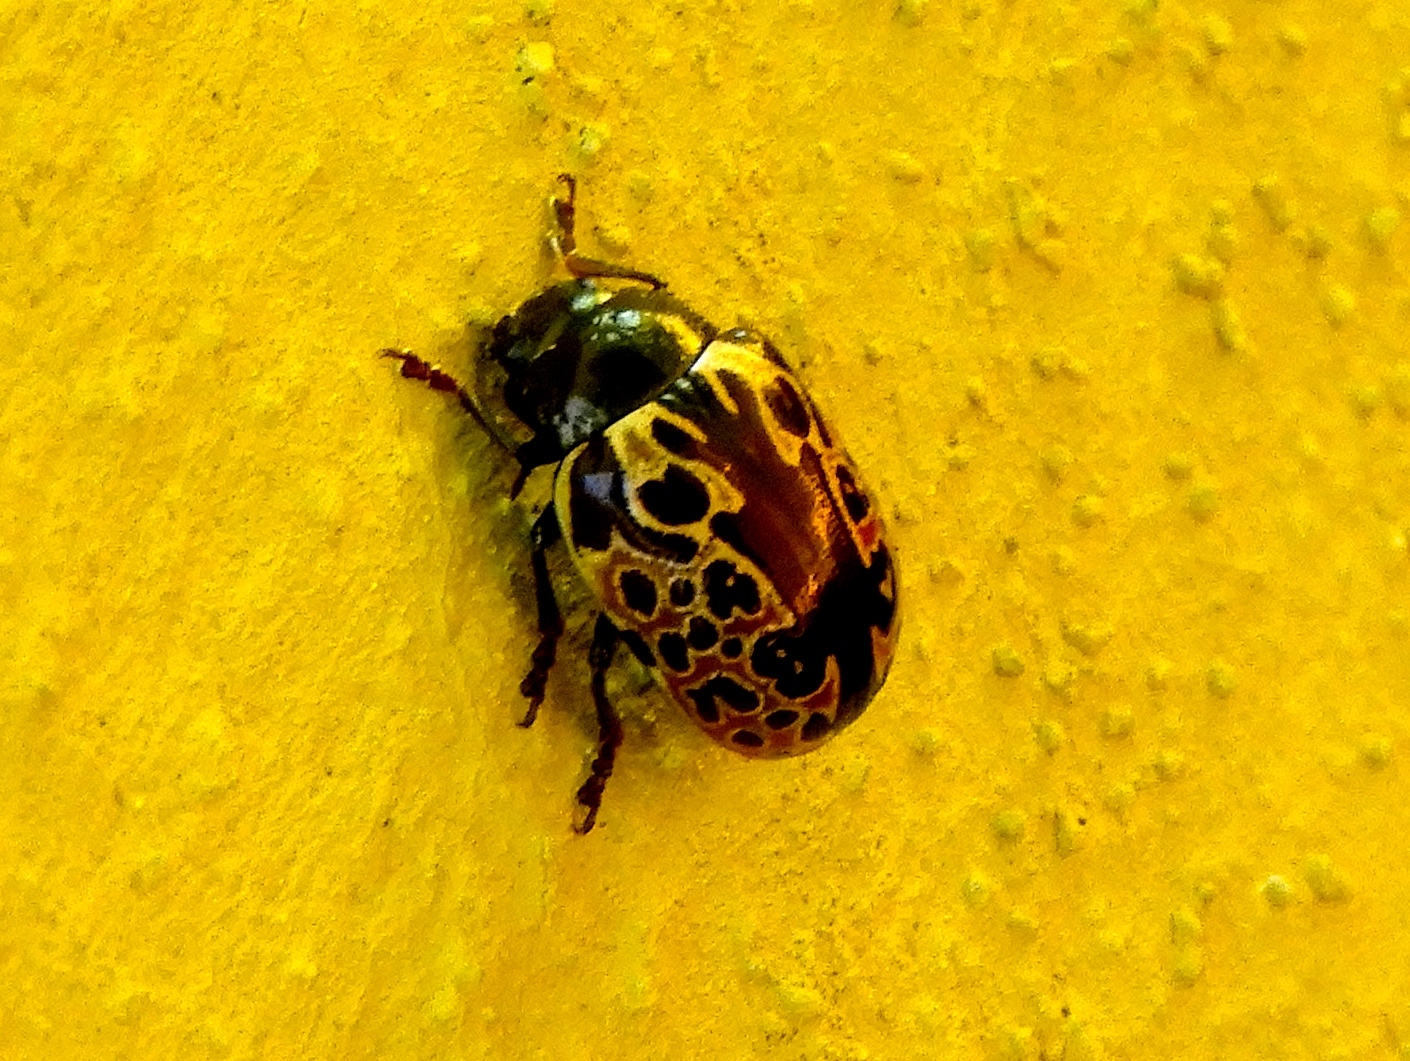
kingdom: Animalia
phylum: Arthropoda
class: Insecta
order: Coleoptera
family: Chrysomelidae
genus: Calligrapha
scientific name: Calligrapha multipustulata
